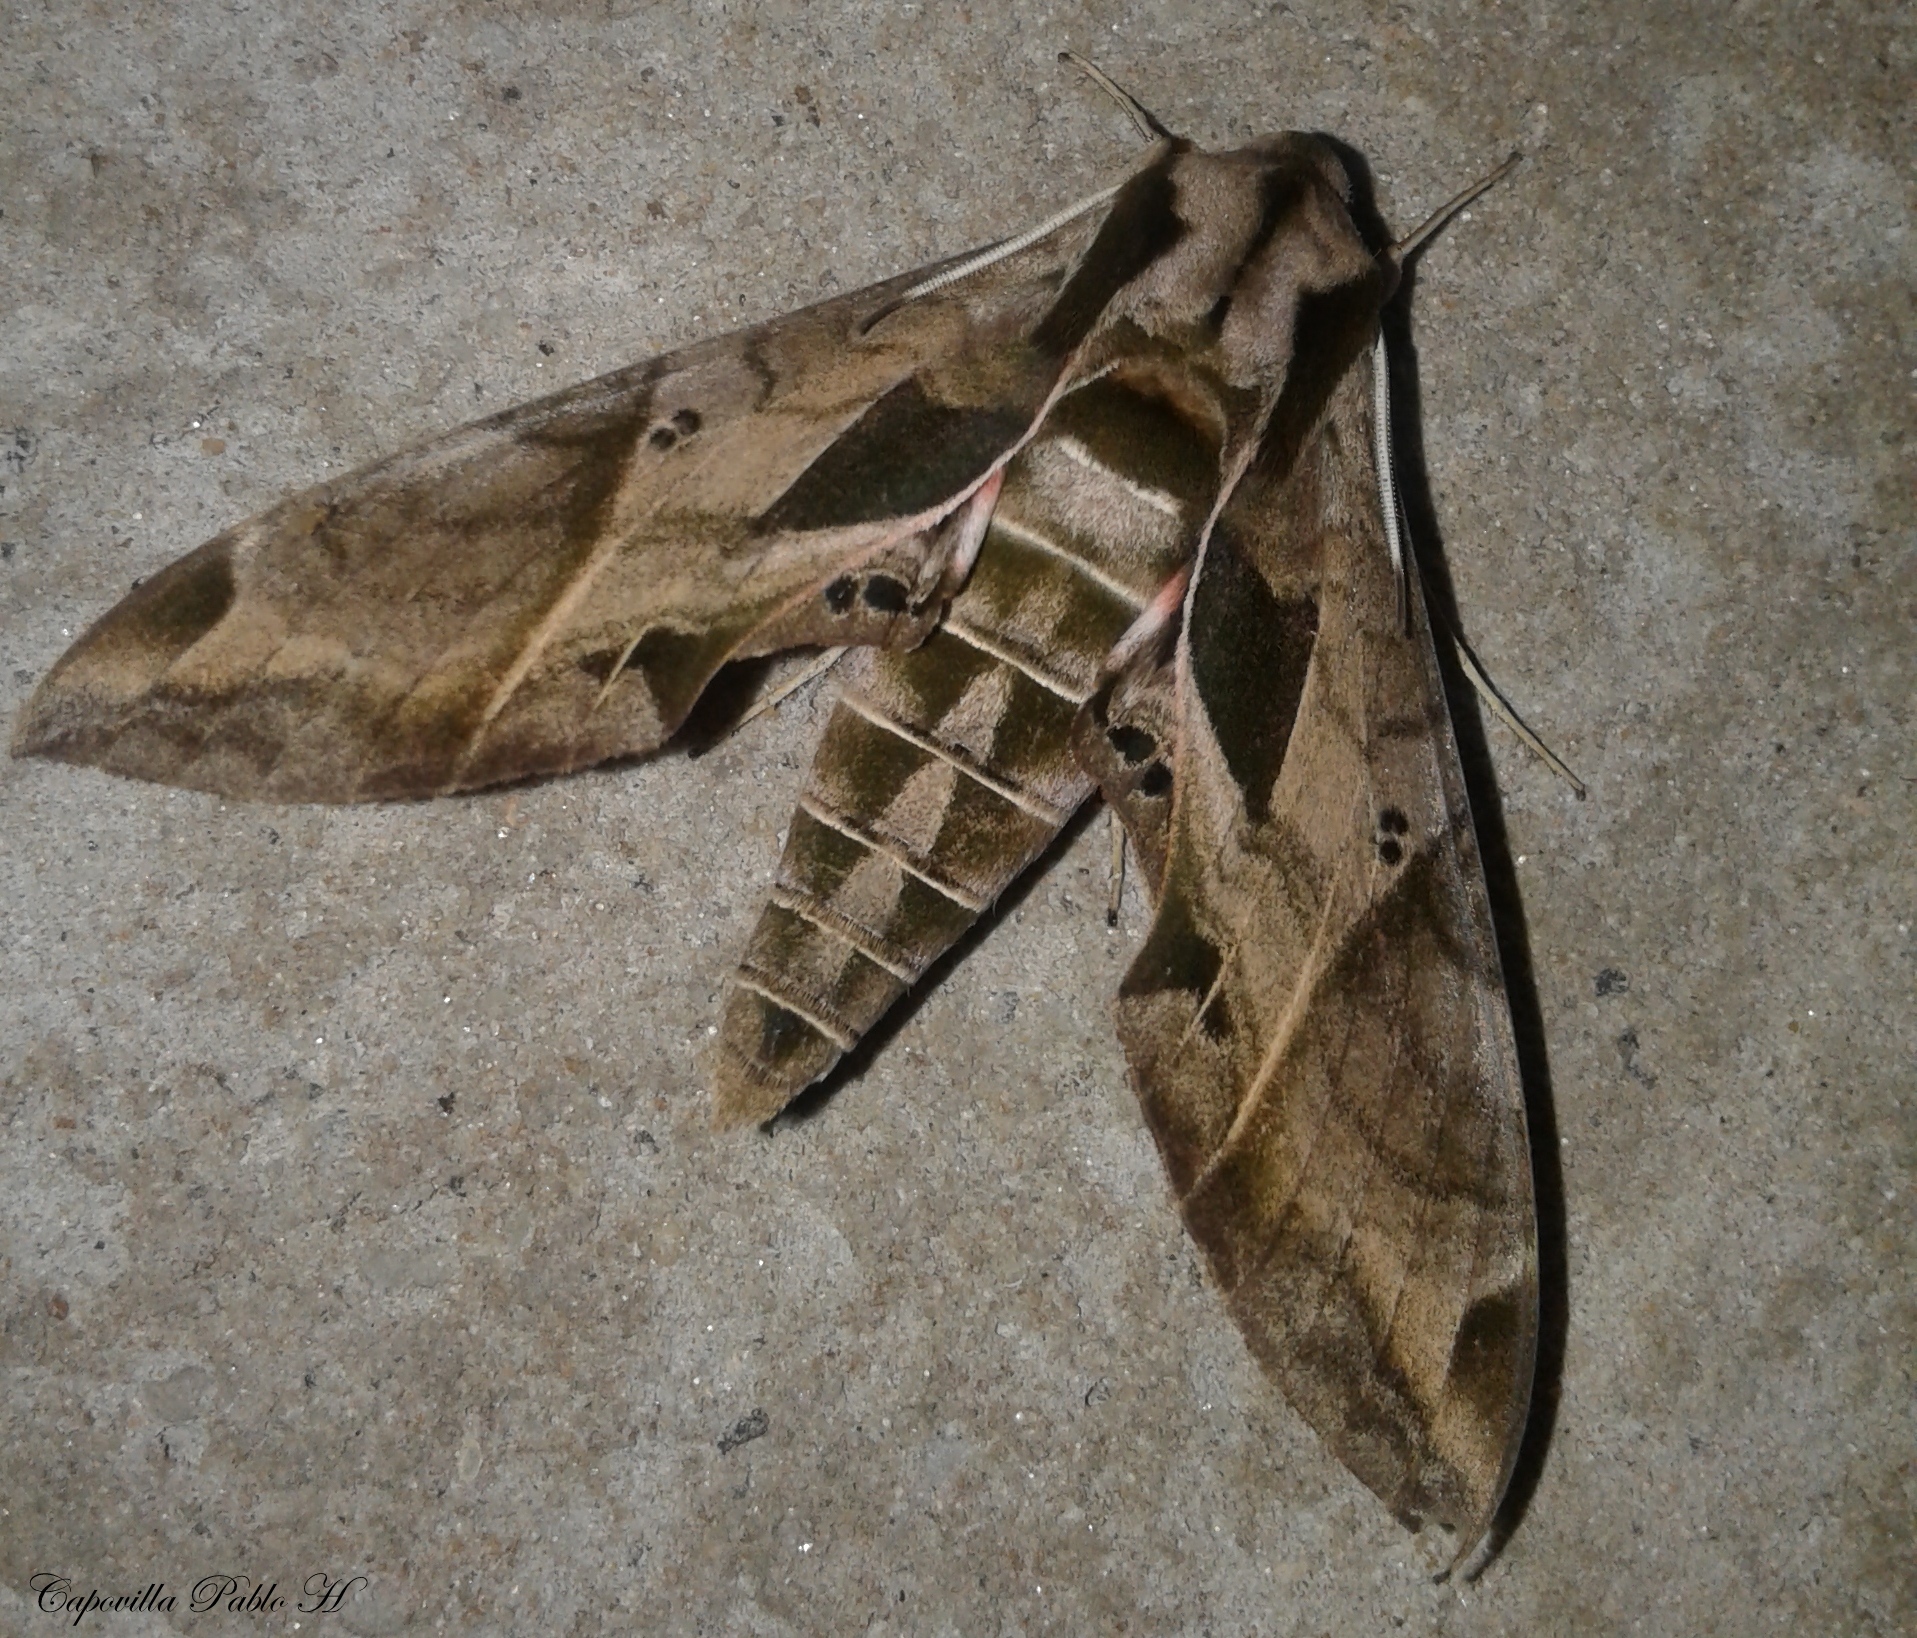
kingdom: Animalia
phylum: Arthropoda
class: Insecta
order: Lepidoptera
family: Sphingidae
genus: Eumorpha
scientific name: Eumorpha analis
